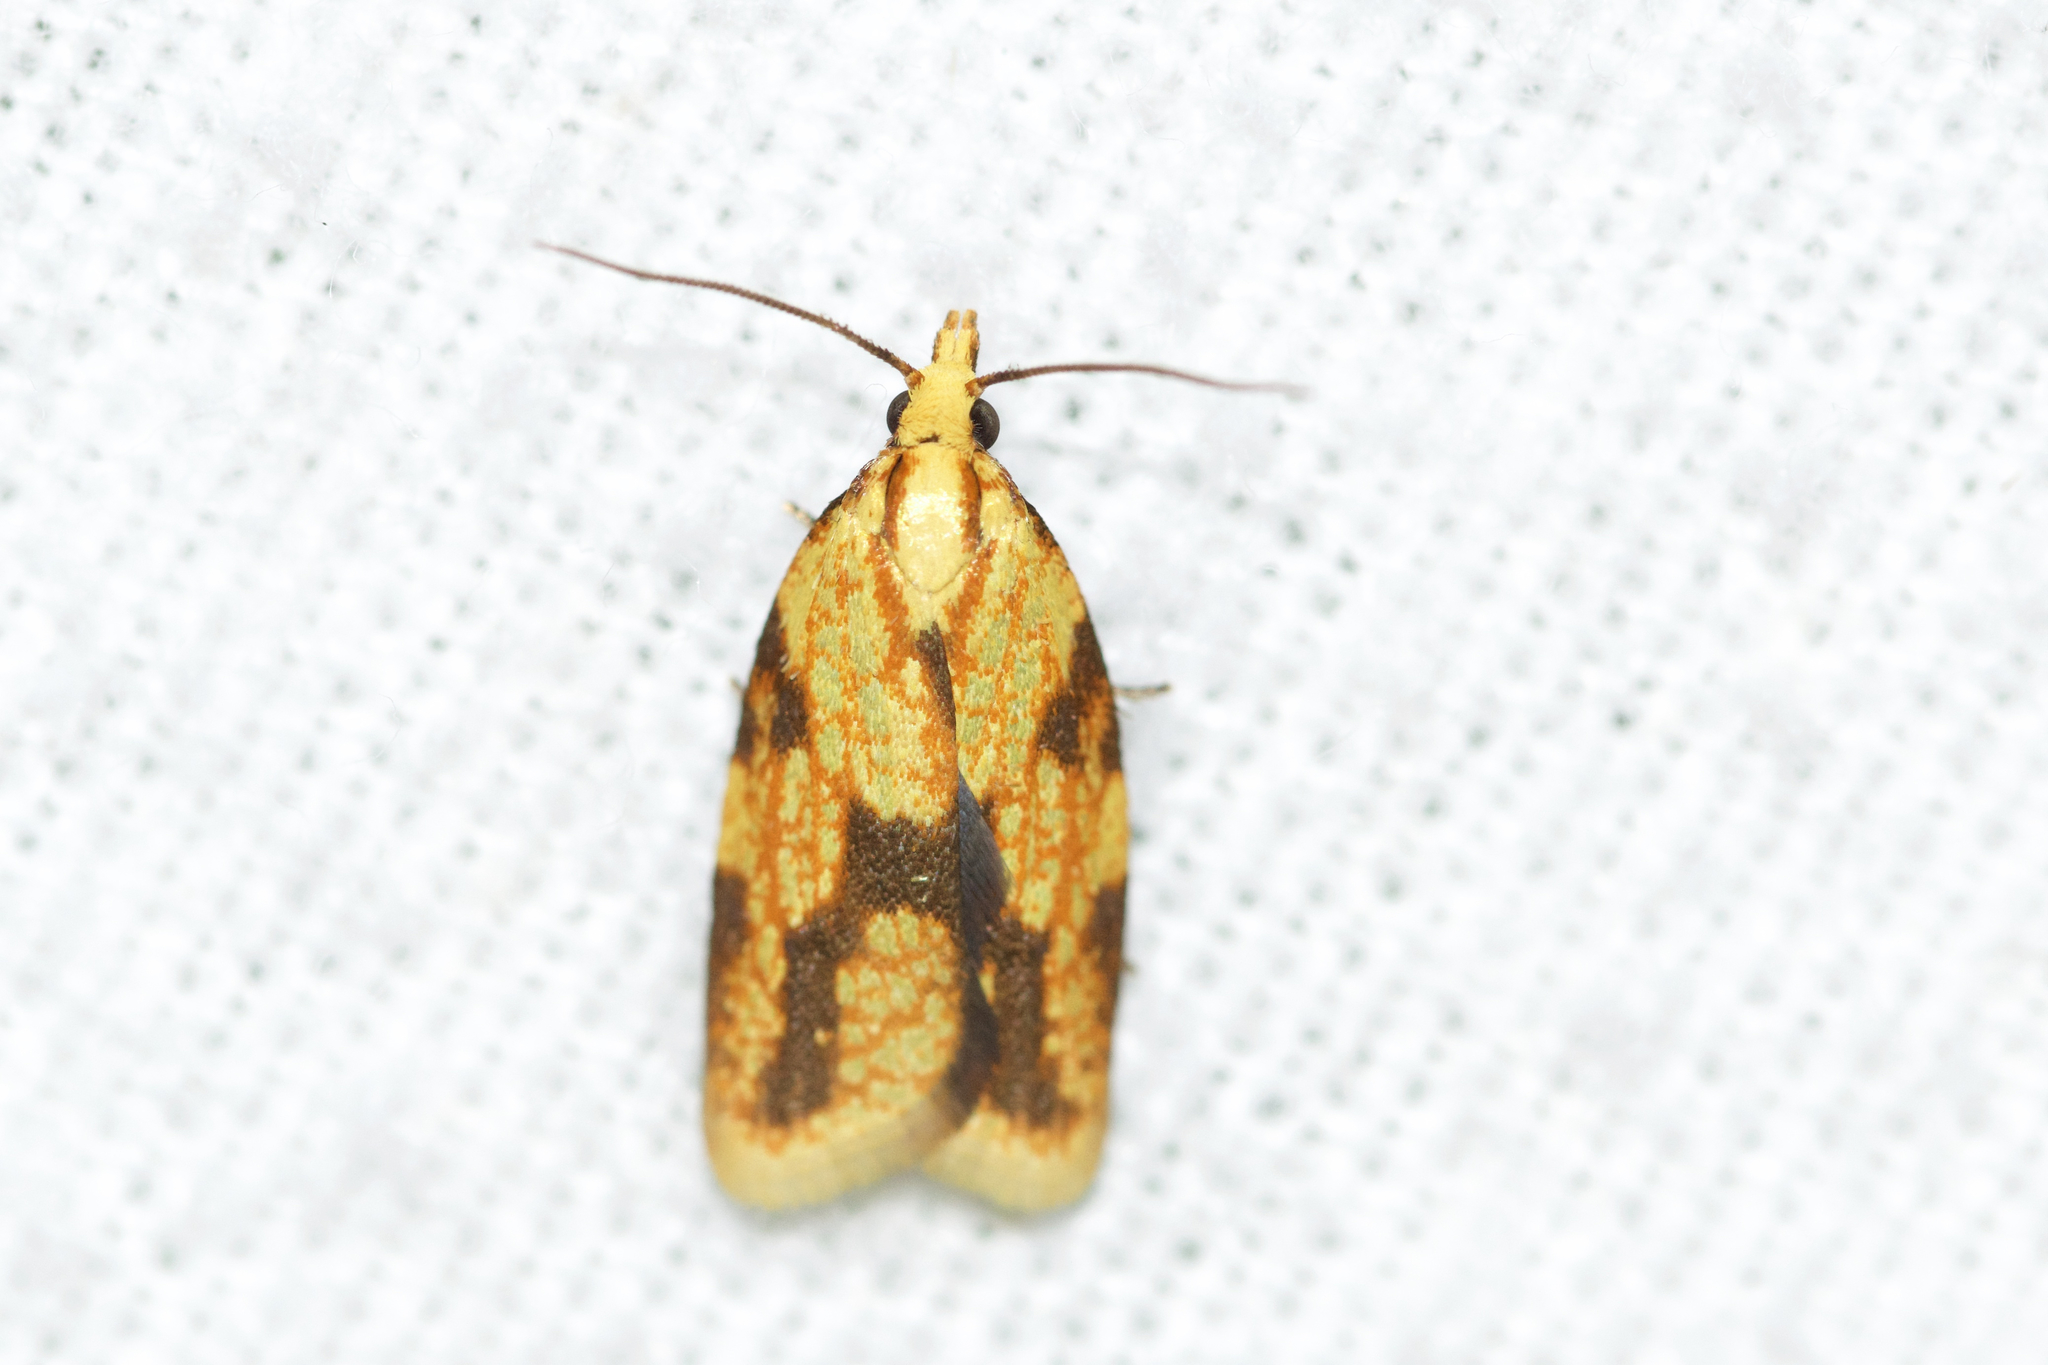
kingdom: Animalia
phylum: Arthropoda
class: Insecta
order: Lepidoptera
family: Tortricidae
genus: Sparganothis
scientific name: Sparganothis sulfureana
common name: Sparganothis fruitworm moth
